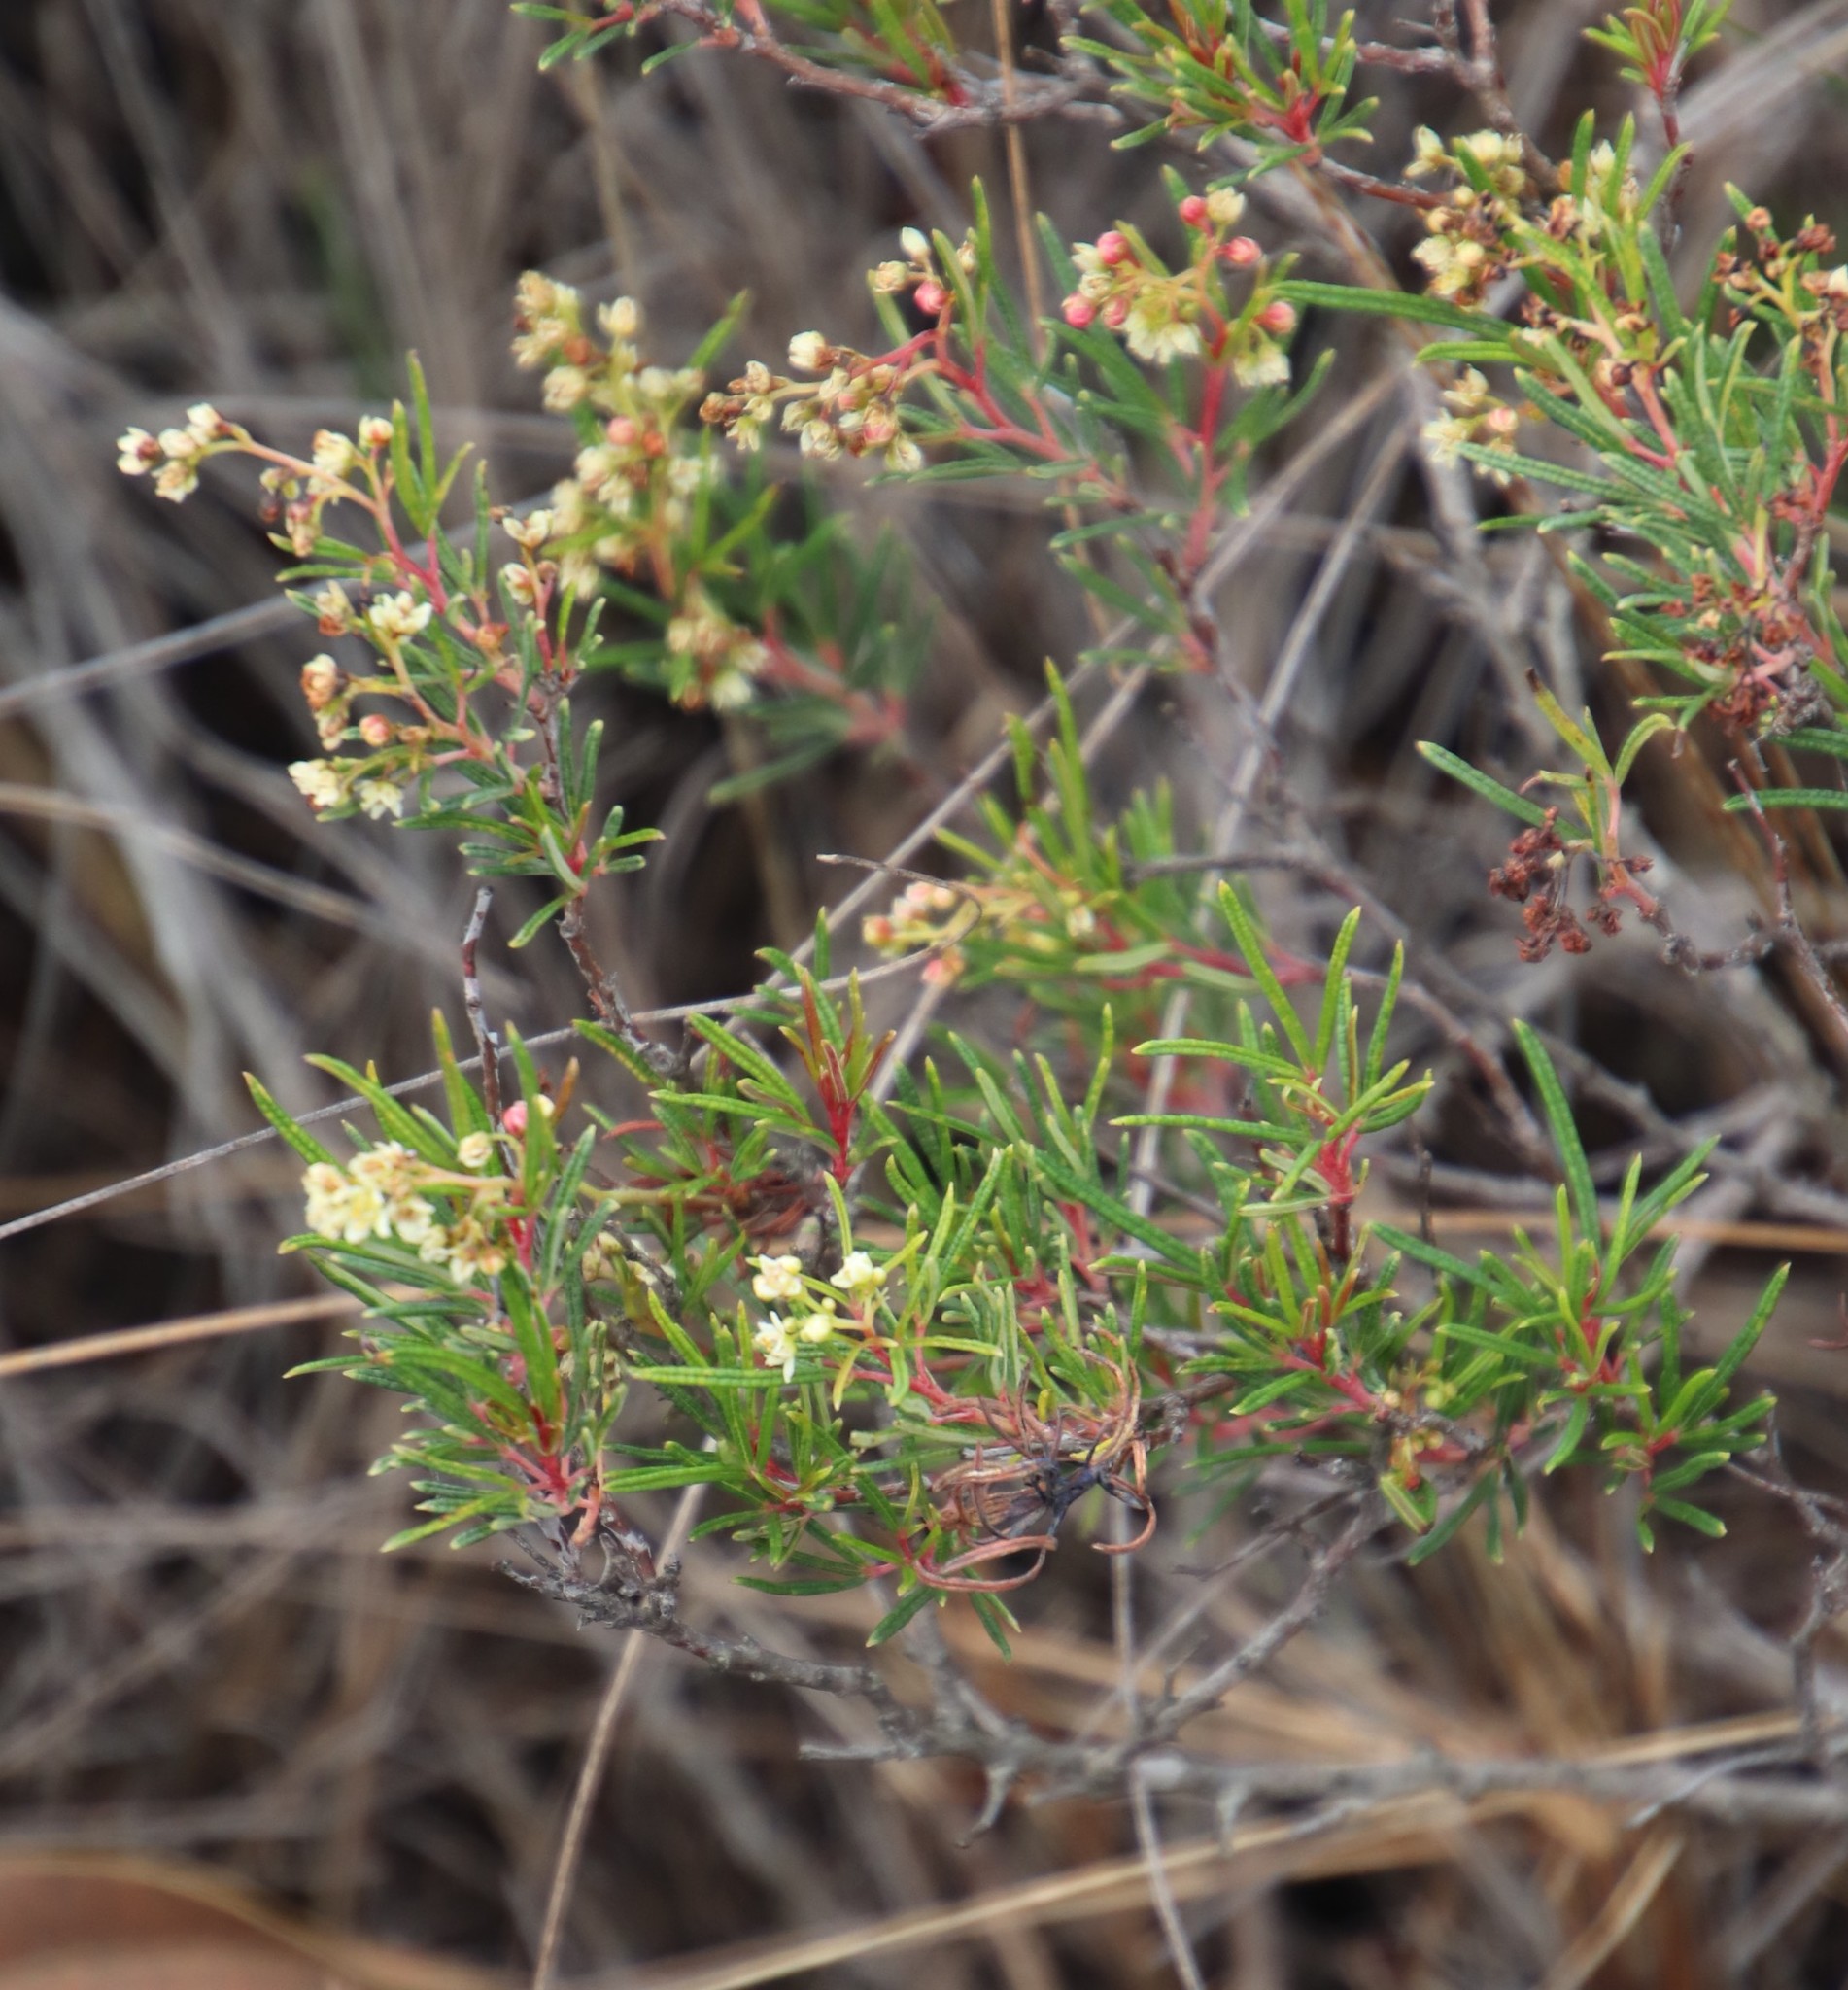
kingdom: Plantae
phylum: Tracheophyta
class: Magnoliopsida
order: Sapindales
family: Anacardiaceae
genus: Searsia
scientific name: Searsia rosmarinifolia
